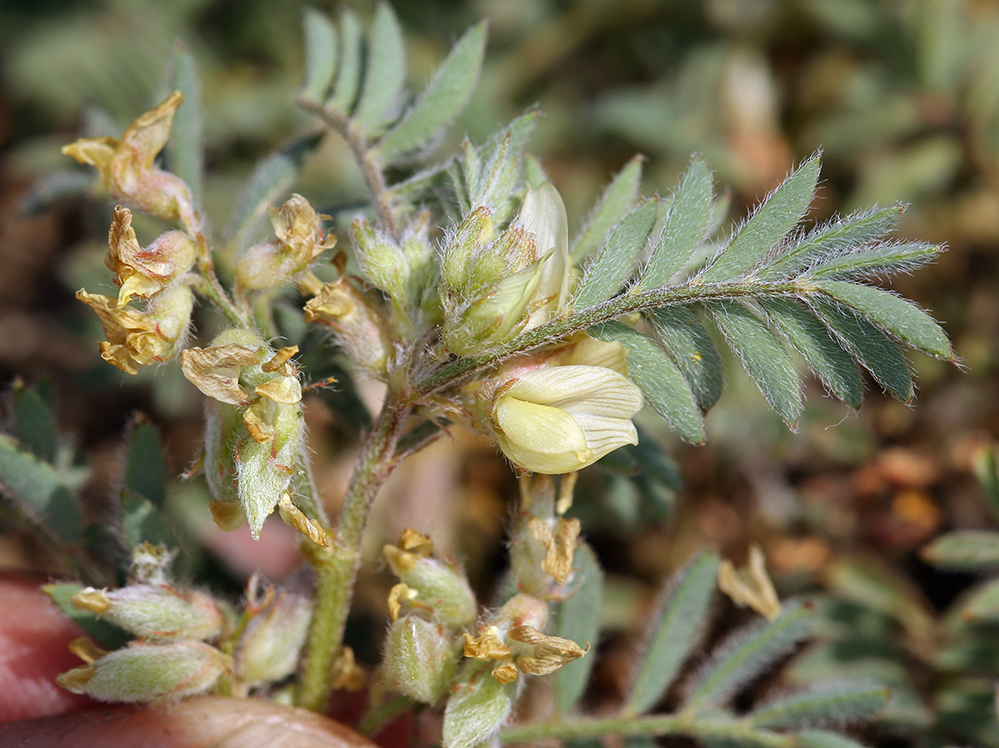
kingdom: Plantae
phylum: Tracheophyta
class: Magnoliopsida
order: Fabales
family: Fabaceae
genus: Astragalus
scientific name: Astragalus lentiformis
